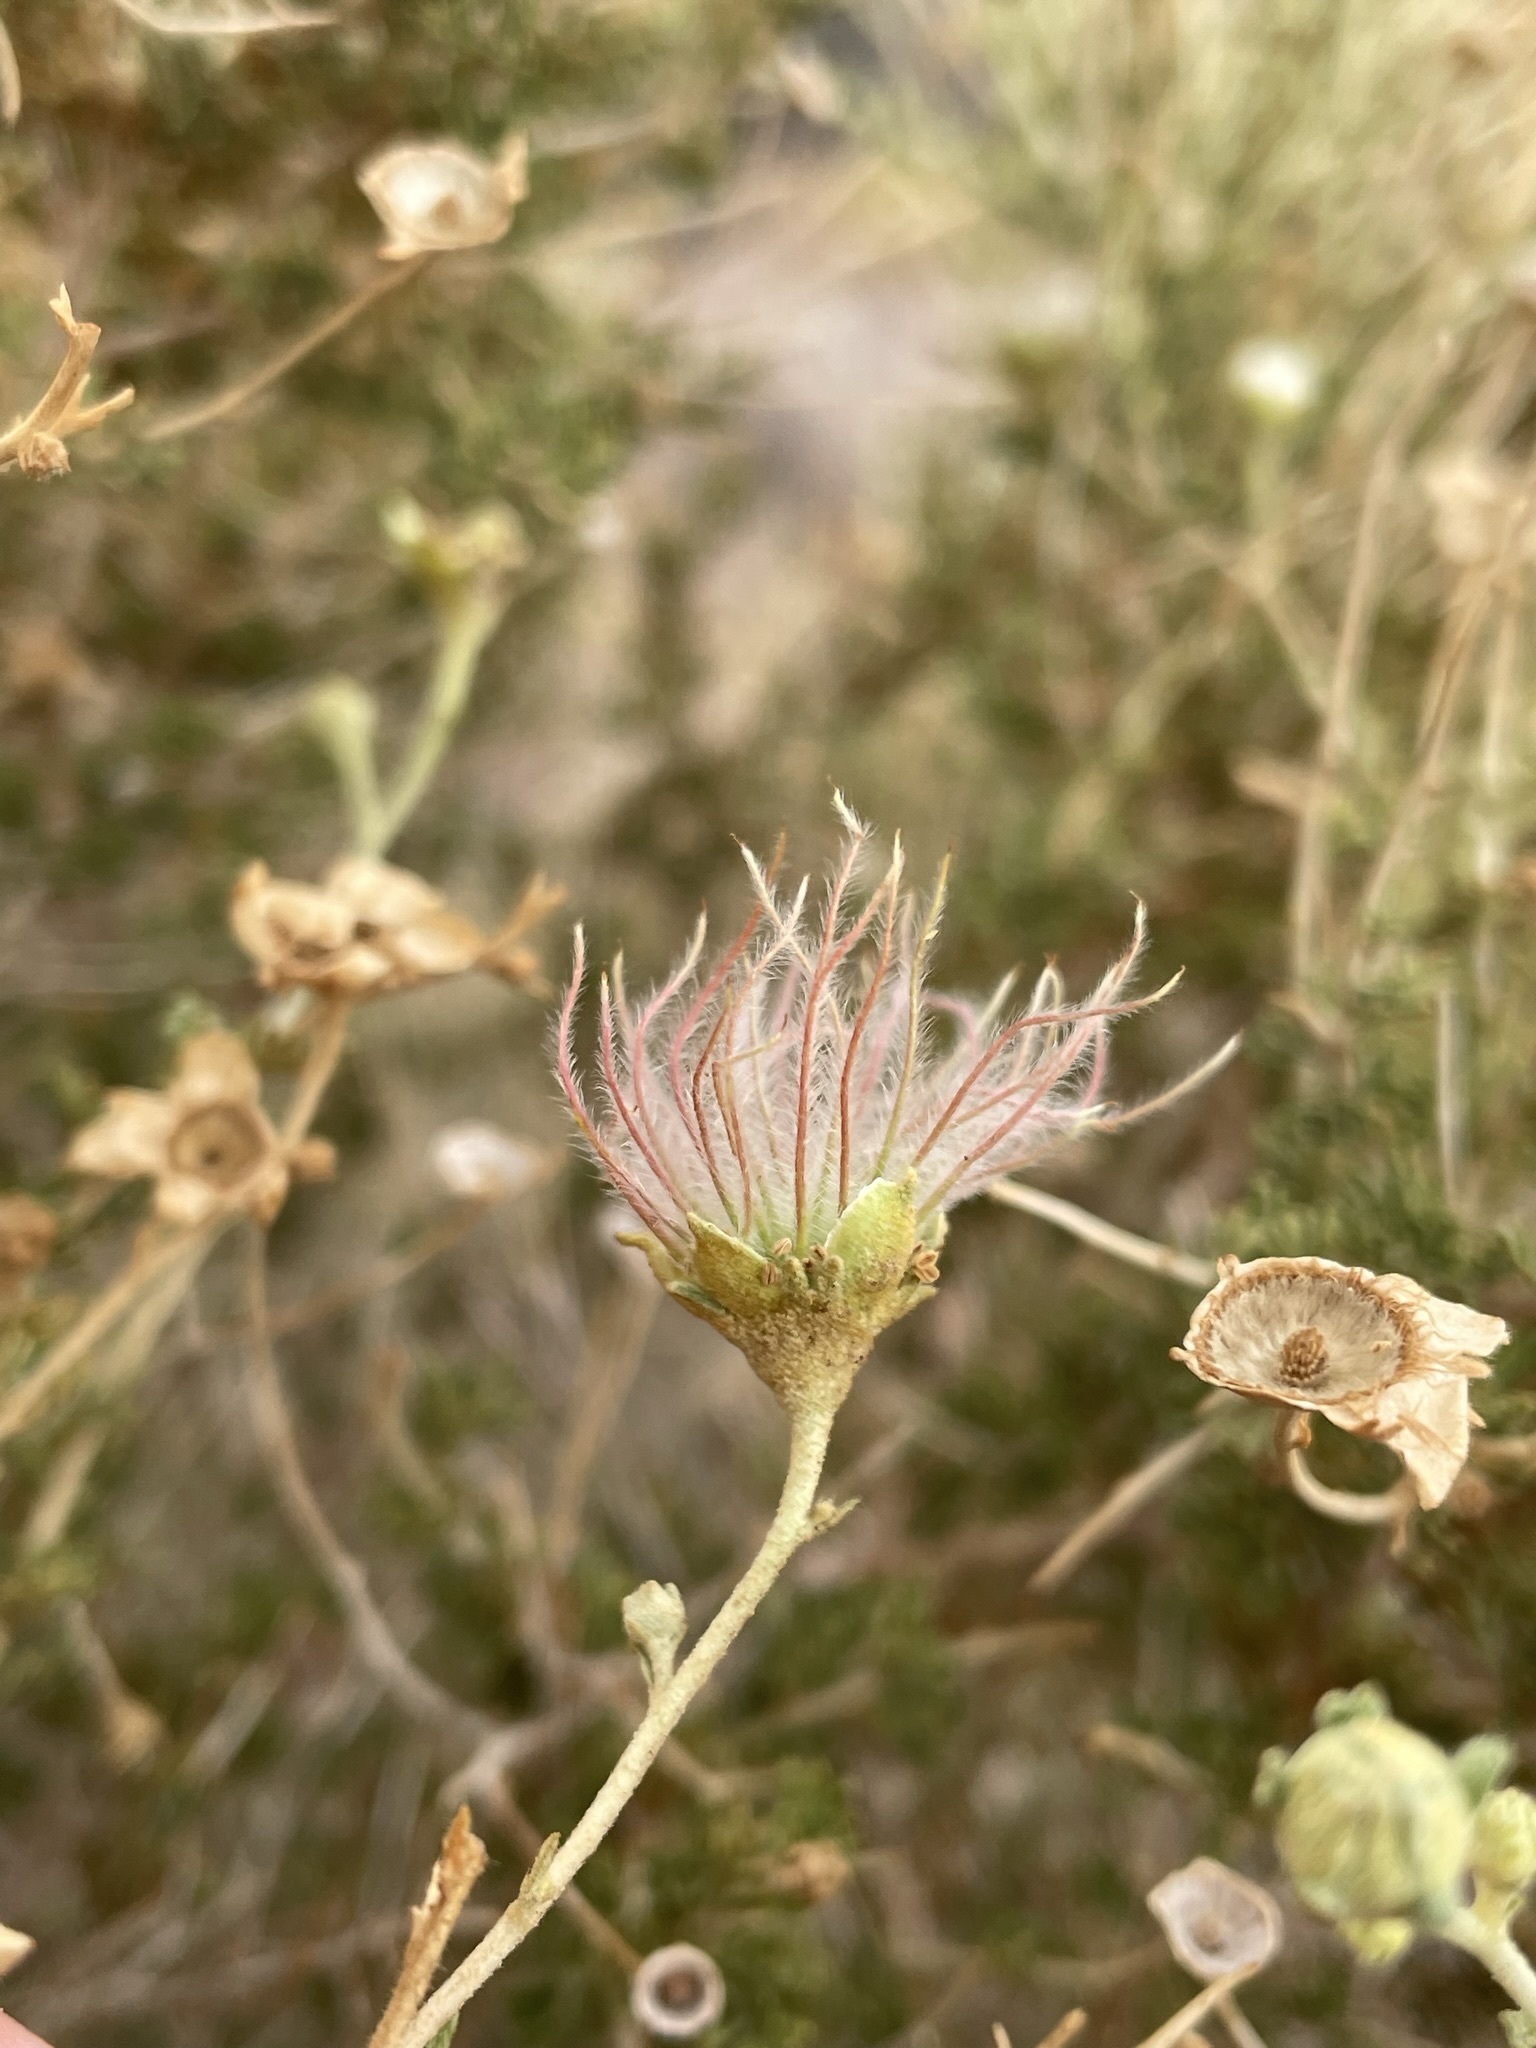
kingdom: Plantae
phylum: Tracheophyta
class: Magnoliopsida
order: Rosales
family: Rosaceae
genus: Fallugia
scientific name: Fallugia paradoxa
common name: Apache-plume
